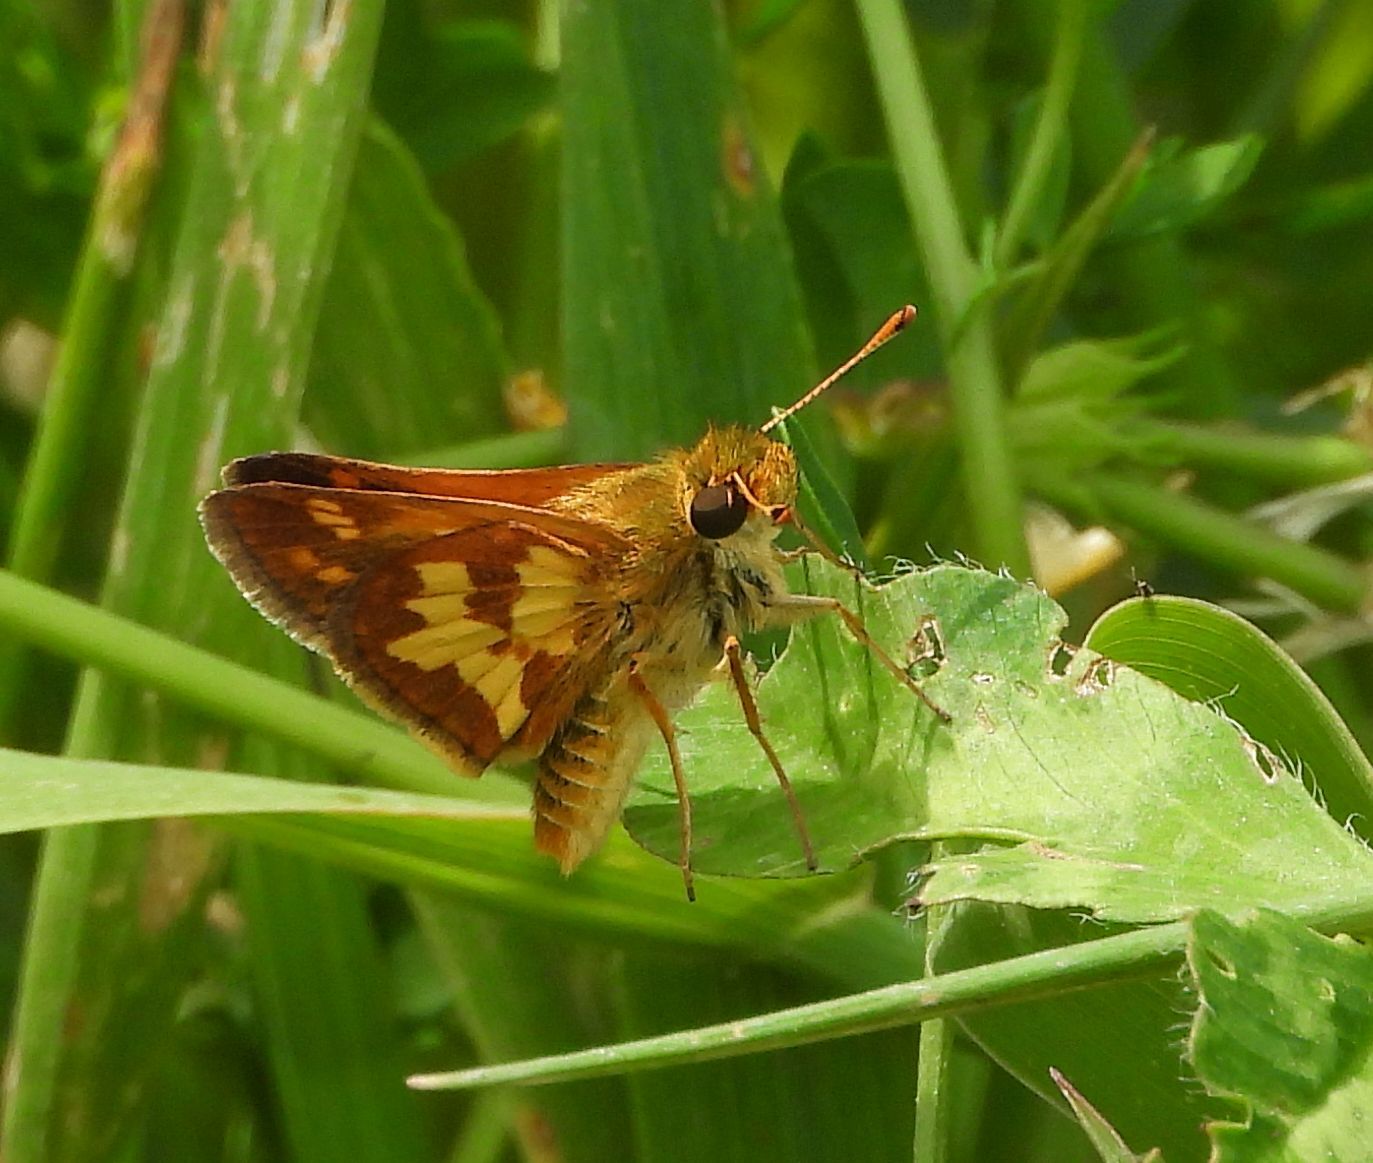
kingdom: Animalia
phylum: Arthropoda
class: Insecta
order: Lepidoptera
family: Hesperiidae
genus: Polites
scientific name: Polites coras
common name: Peck's skipper
